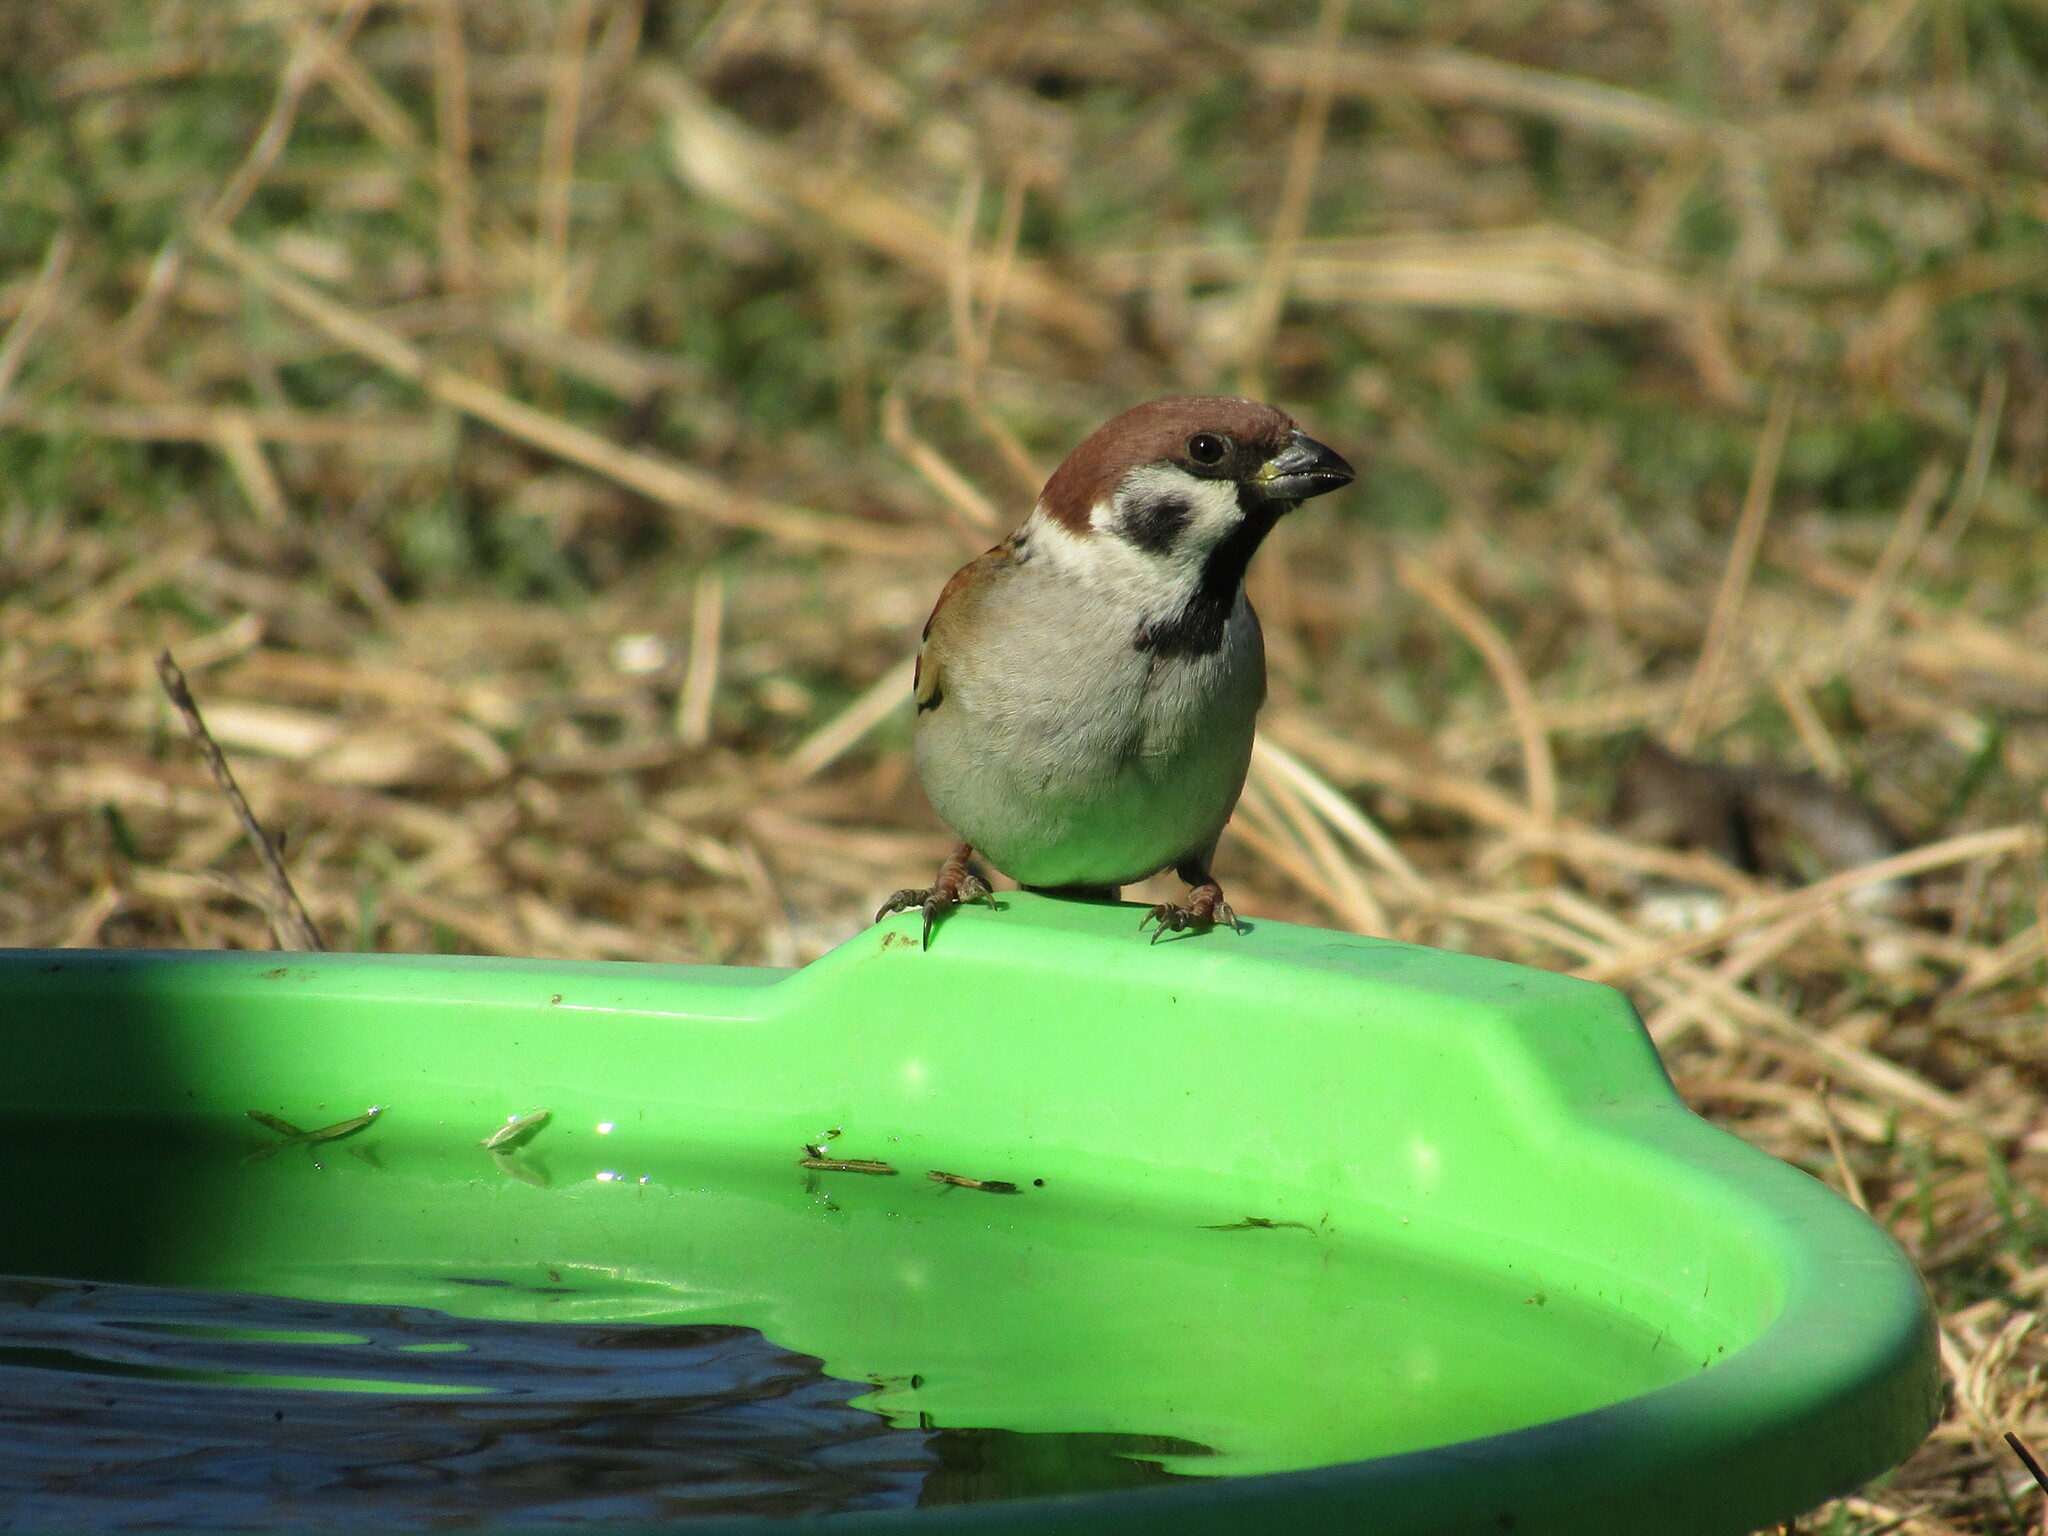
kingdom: Animalia
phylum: Chordata
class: Aves
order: Passeriformes
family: Passeridae
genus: Passer
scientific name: Passer montanus
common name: Eurasian tree sparrow
